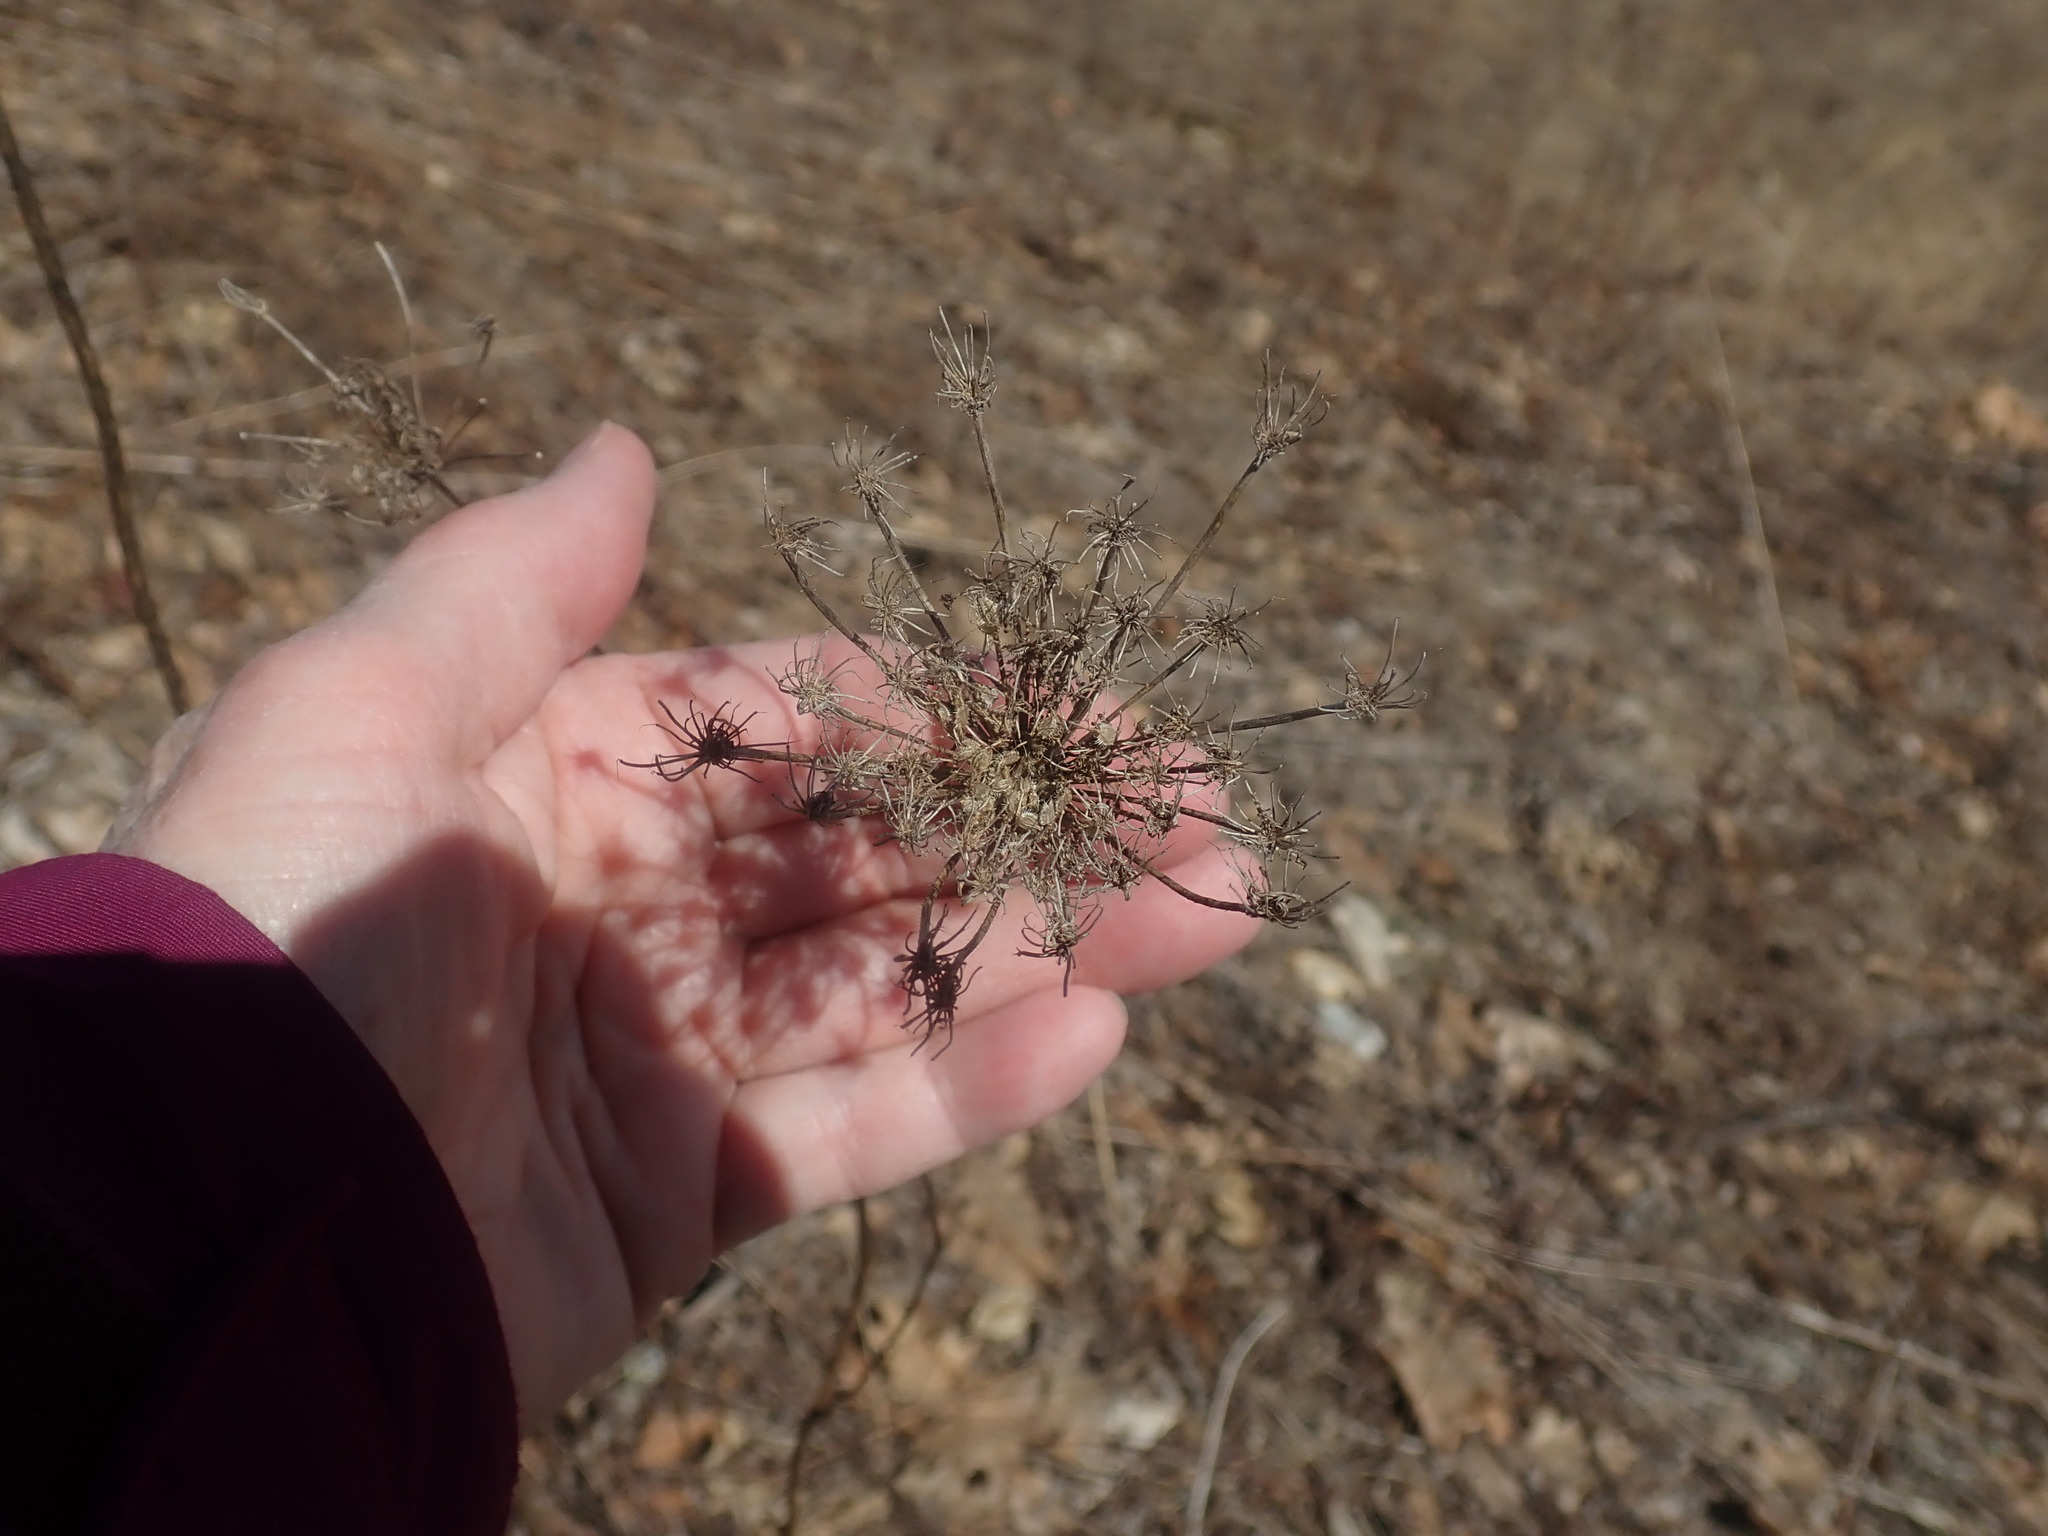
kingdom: Plantae
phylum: Tracheophyta
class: Magnoliopsida
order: Apiales
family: Apiaceae
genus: Daucus
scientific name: Daucus carota
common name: Wild carrot
